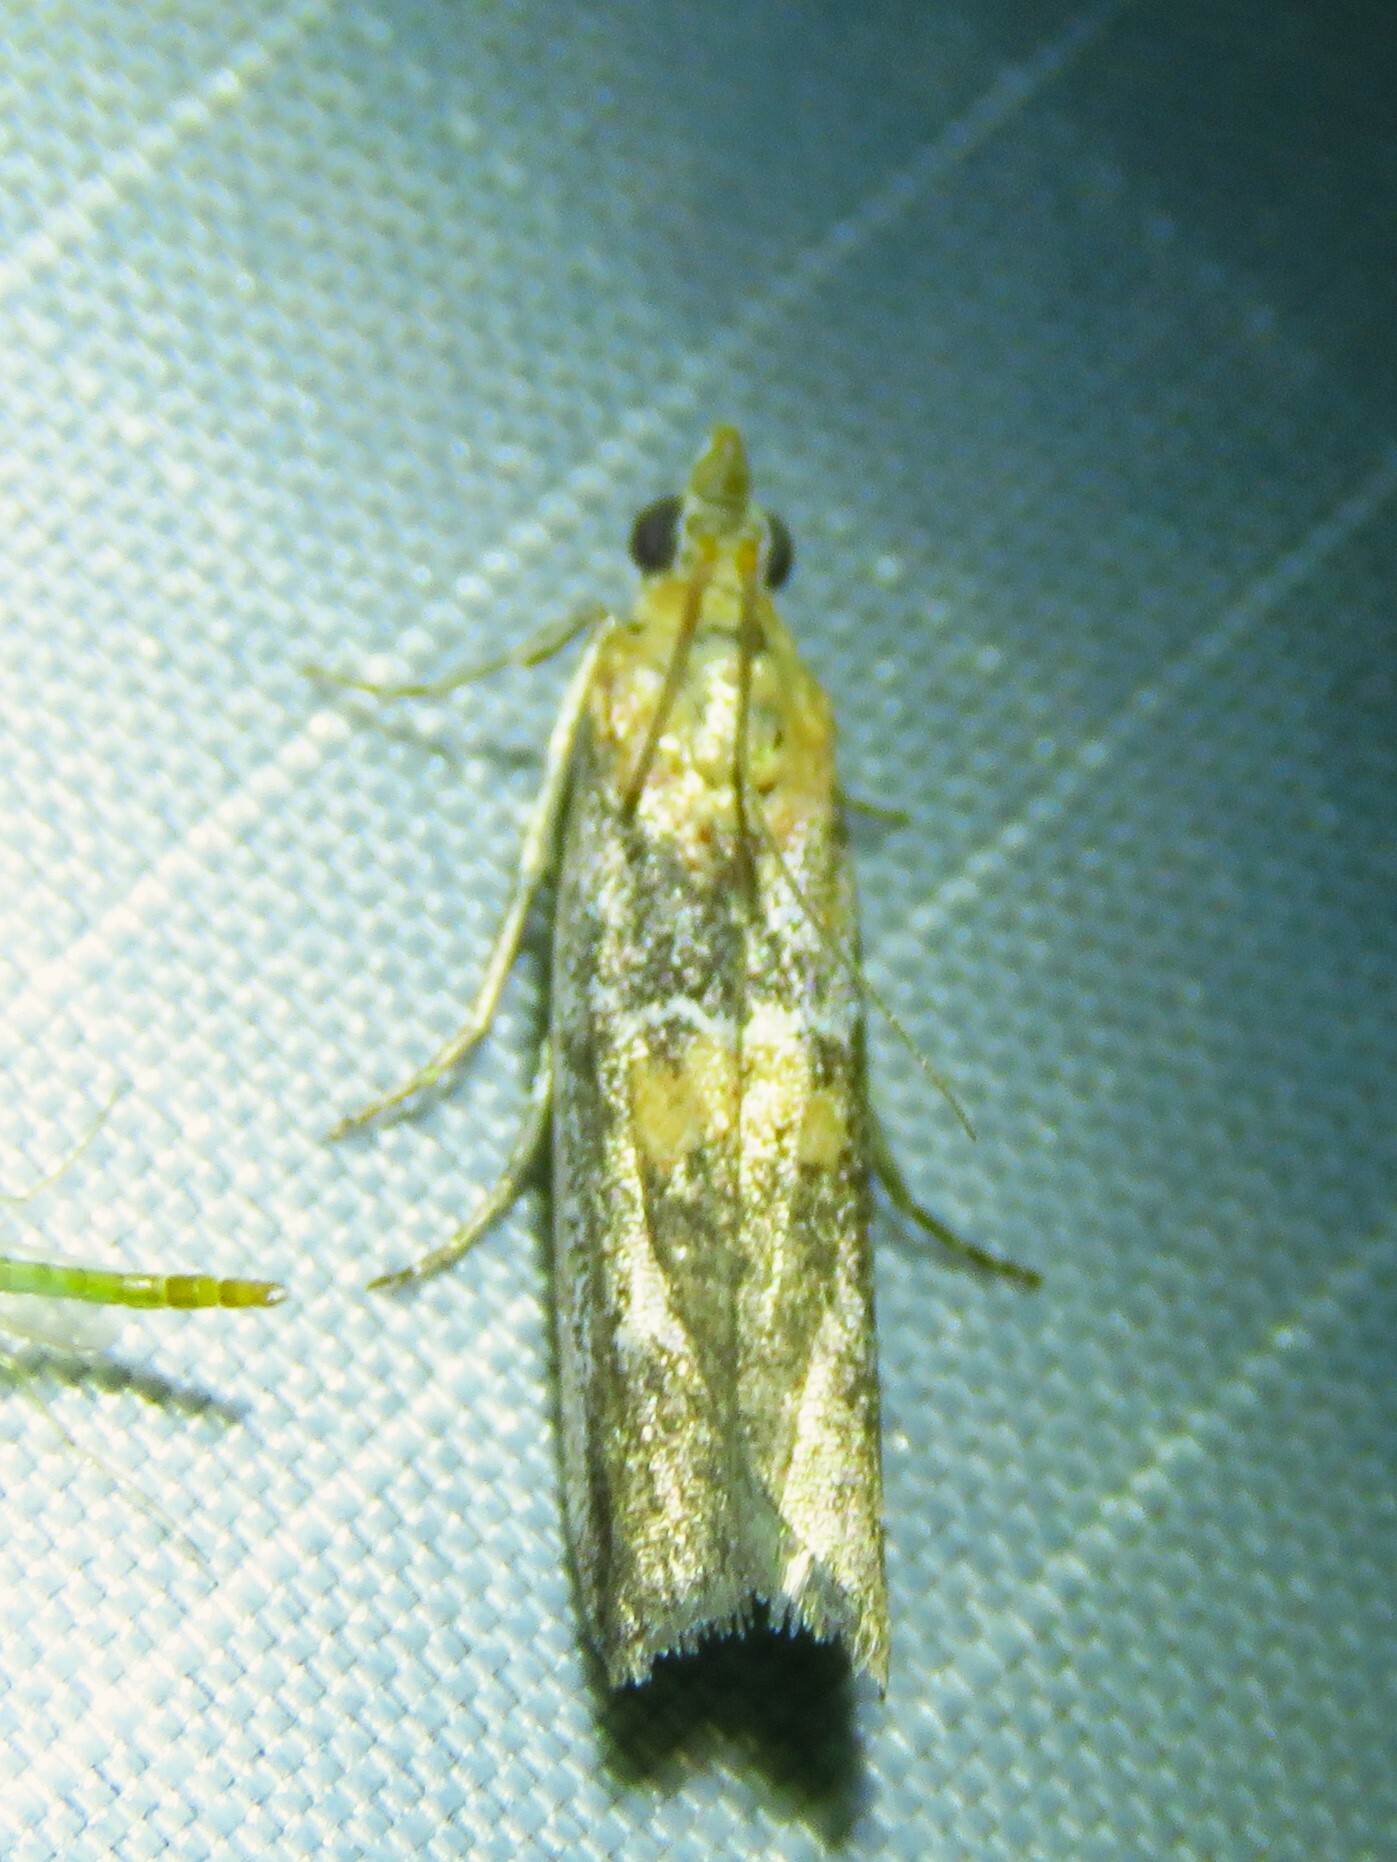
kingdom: Animalia
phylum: Arthropoda
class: Insecta
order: Lepidoptera
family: Pyralidae
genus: Honora
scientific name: Honora mellinella
